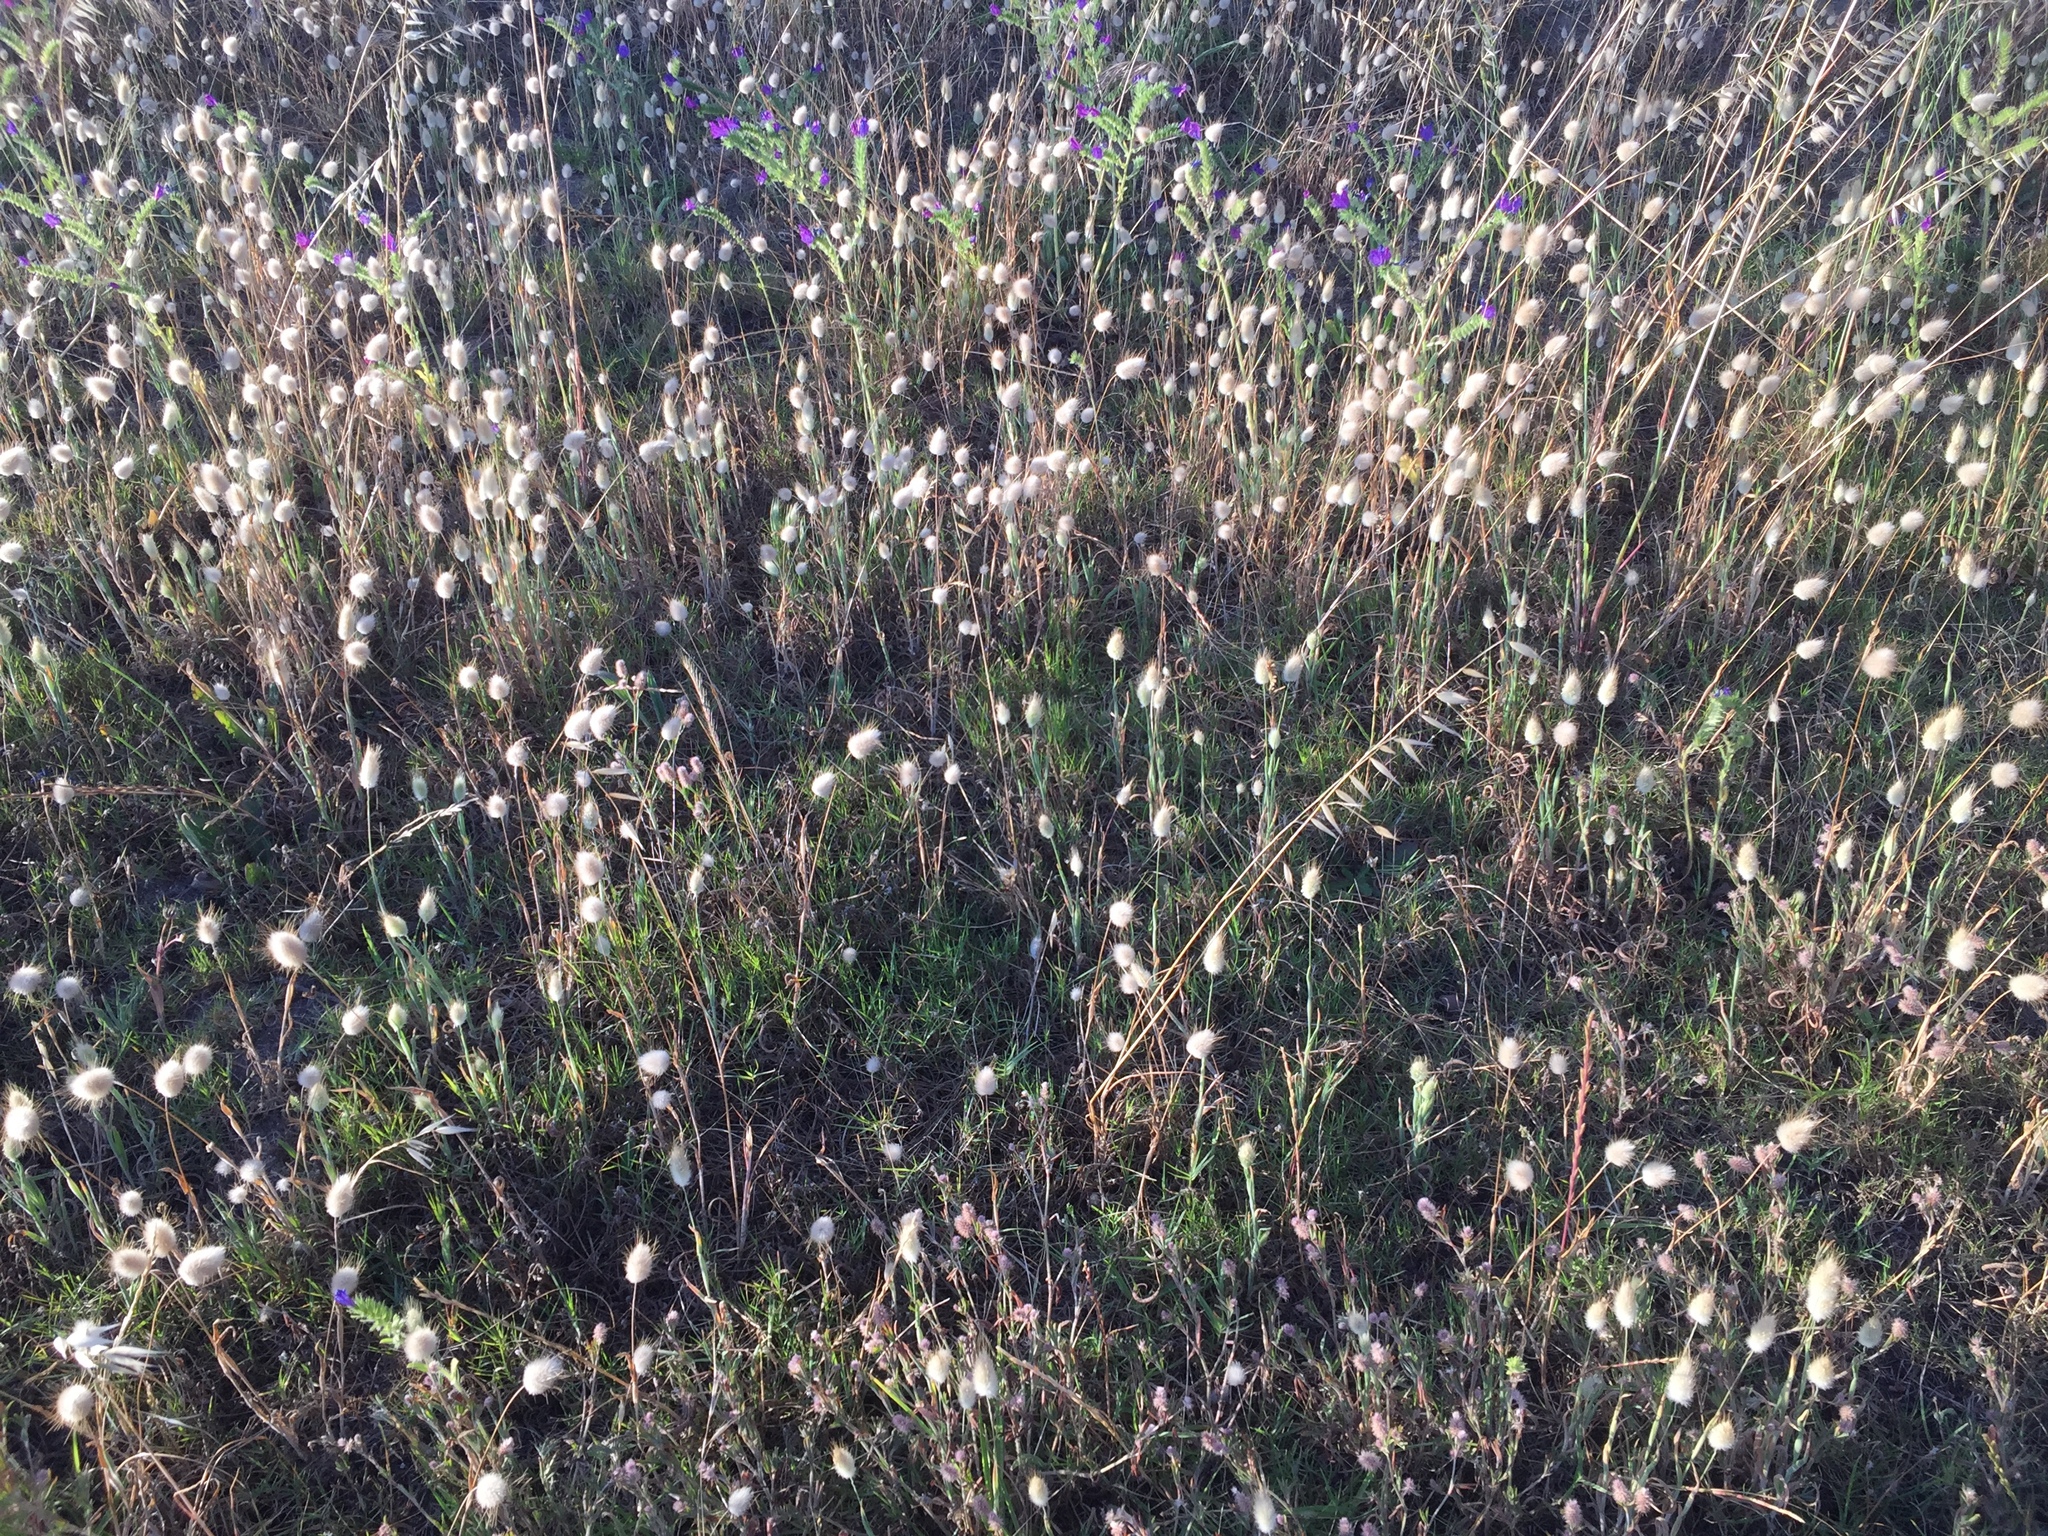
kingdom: Plantae
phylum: Tracheophyta
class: Liliopsida
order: Poales
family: Poaceae
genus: Lagurus
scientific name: Lagurus ovatus
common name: Hare's-tail
